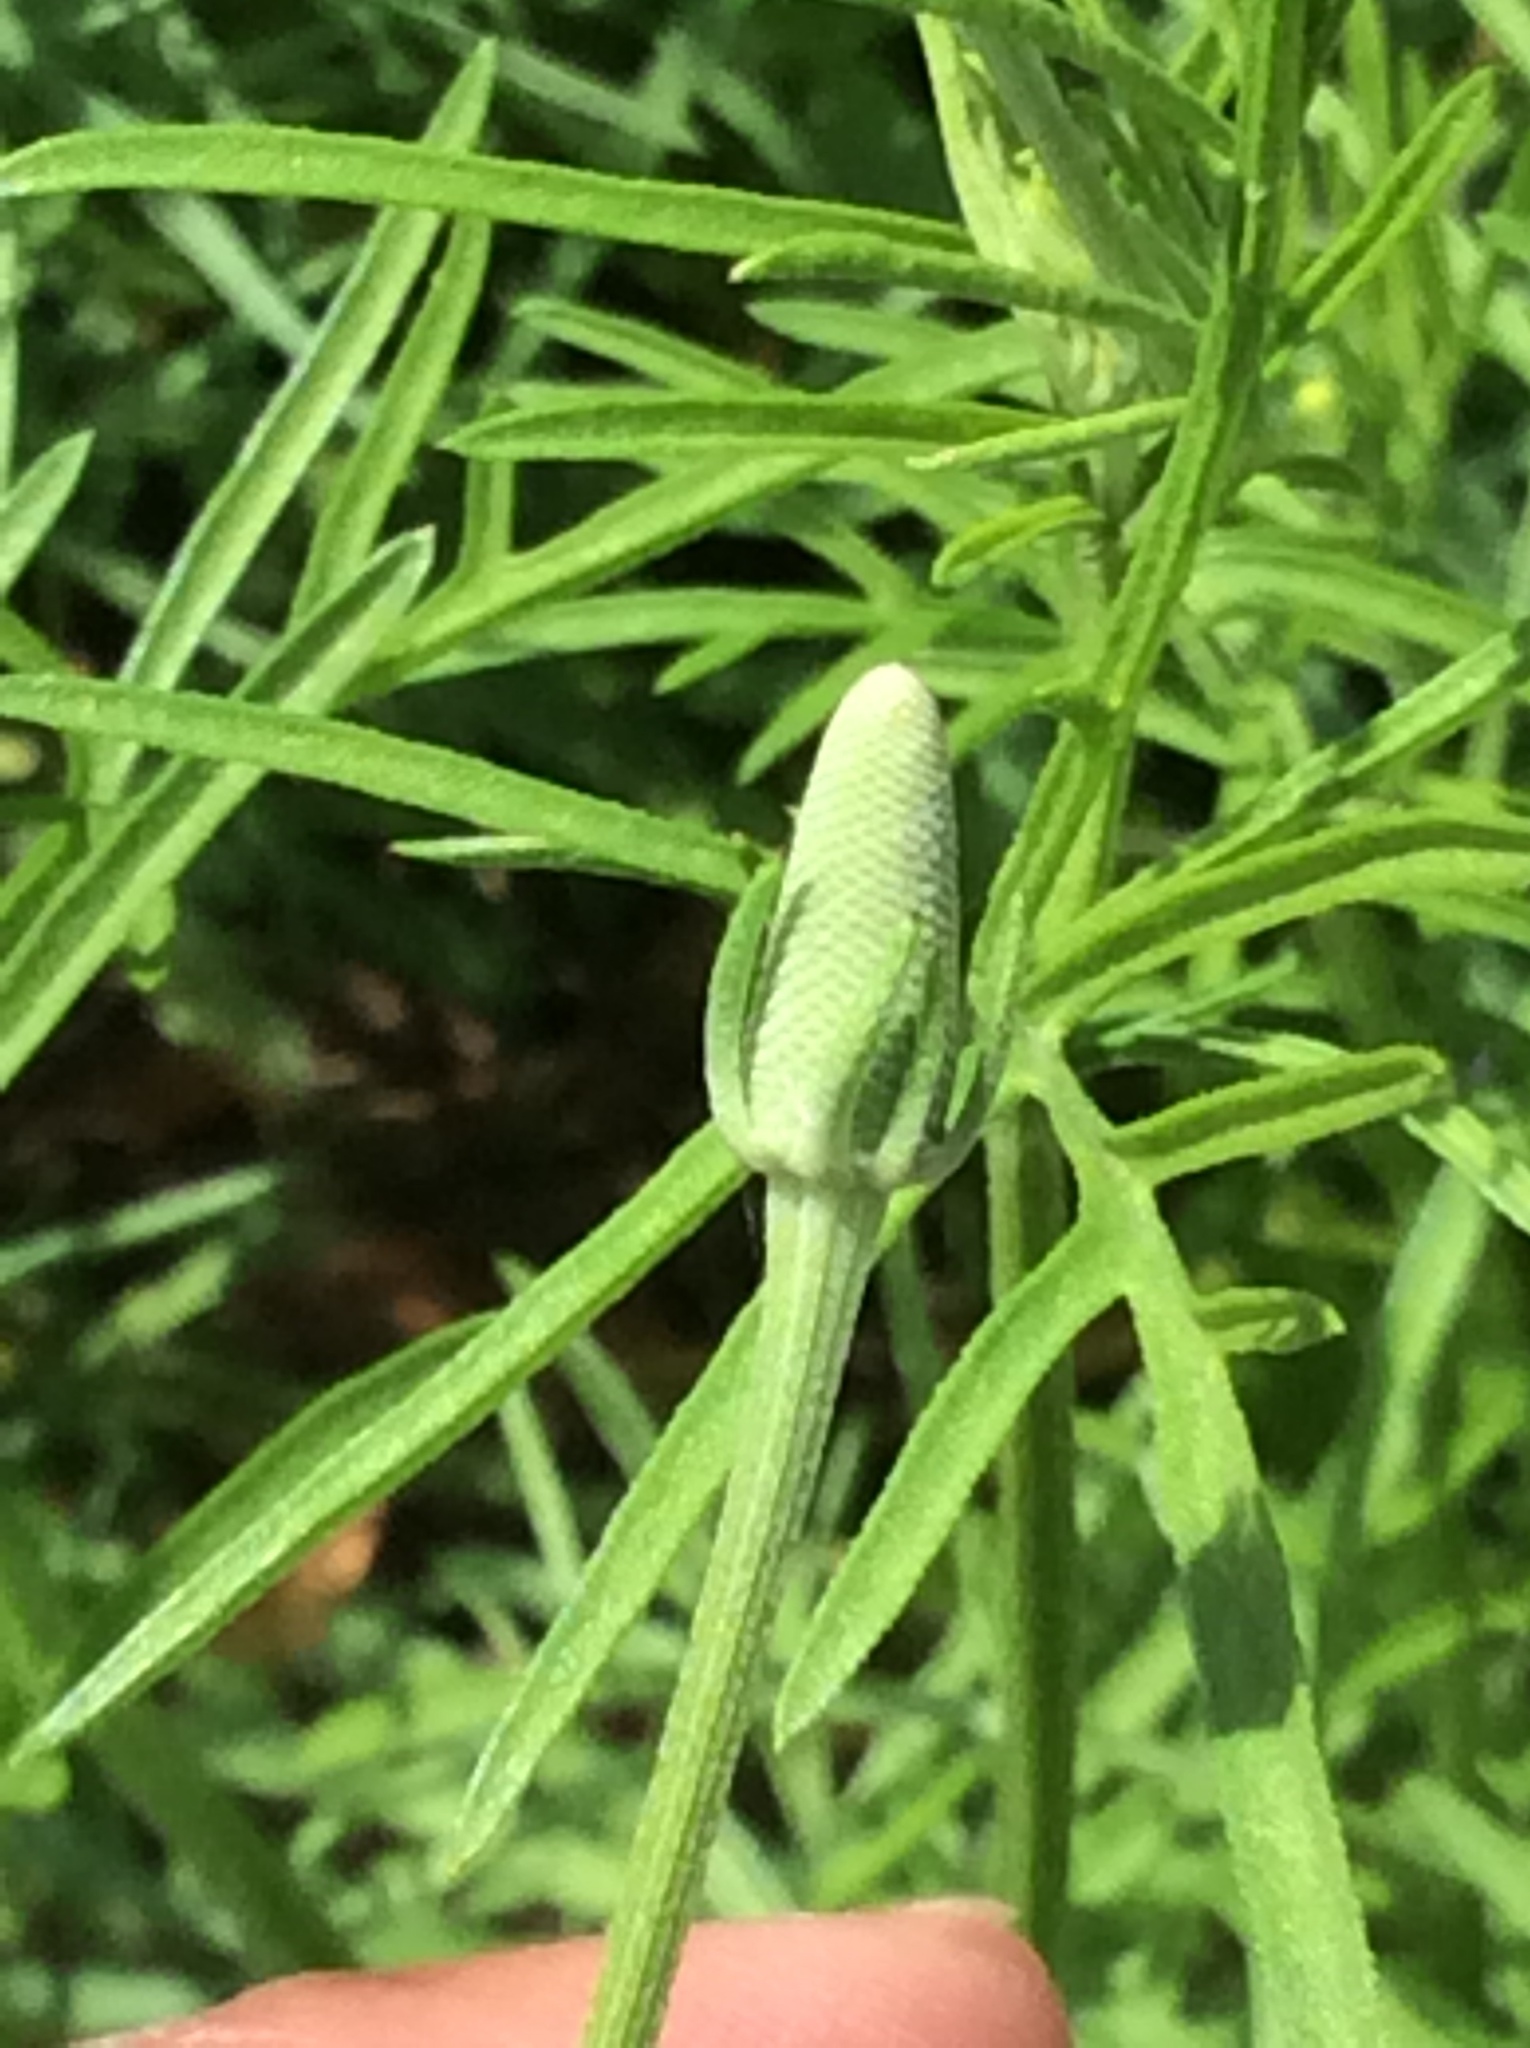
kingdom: Plantae
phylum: Tracheophyta
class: Magnoliopsida
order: Asterales
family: Asteraceae
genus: Ratibida
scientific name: Ratibida columnifera
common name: Prairie coneflower
